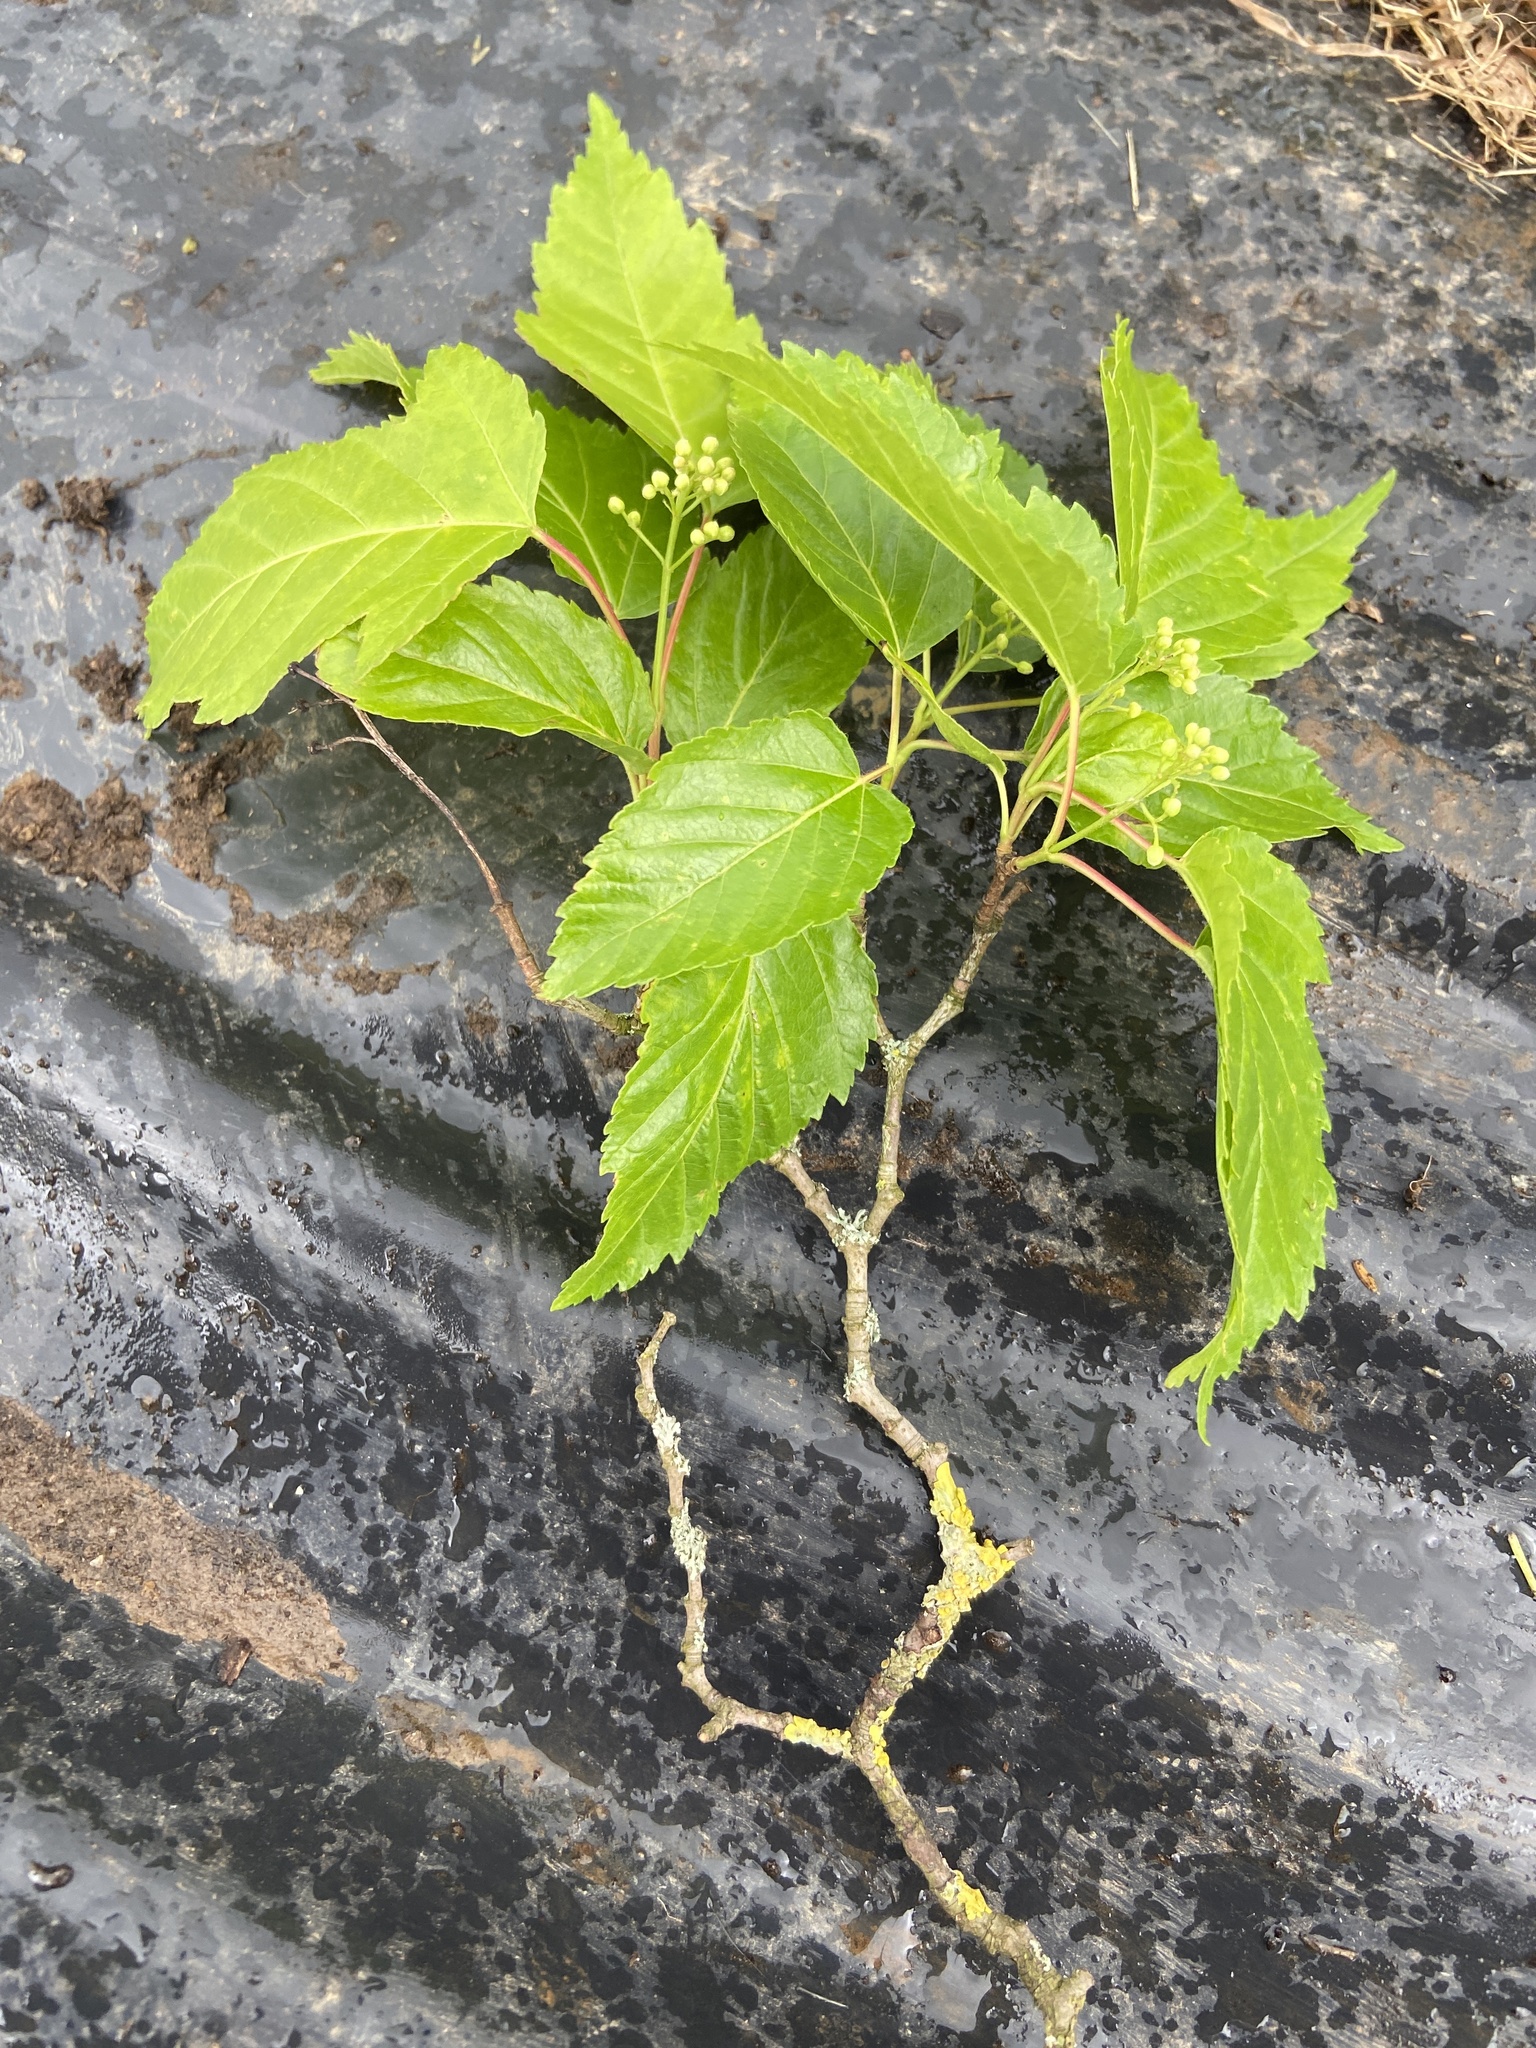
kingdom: Plantae
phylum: Tracheophyta
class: Magnoliopsida
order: Sapindales
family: Sapindaceae
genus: Acer
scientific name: Acer tataricum
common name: Tartar maple
